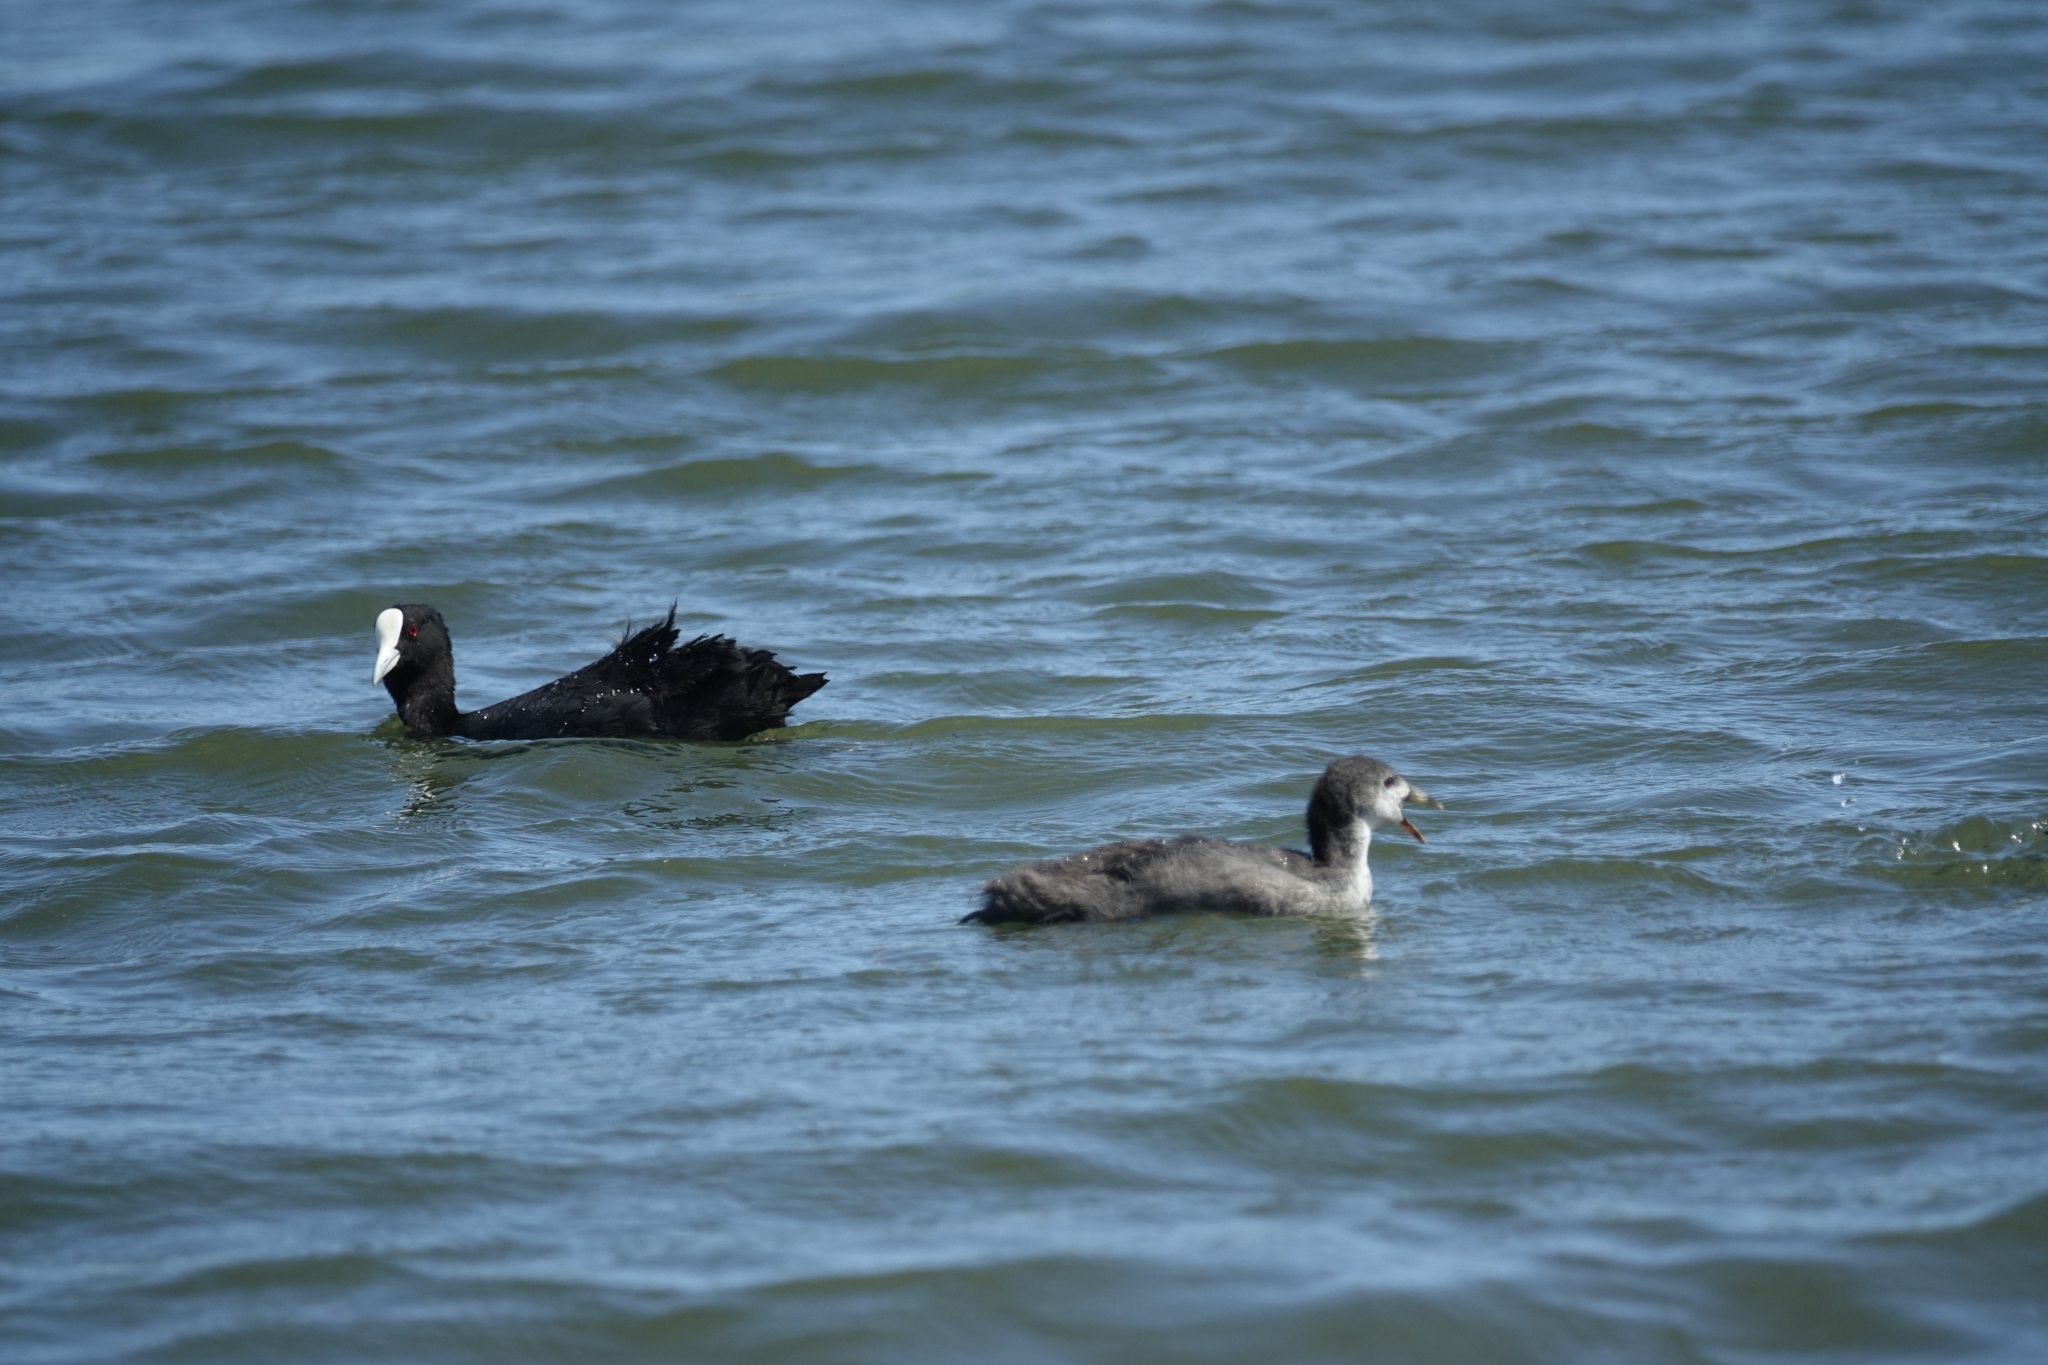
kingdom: Animalia
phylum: Chordata
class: Aves
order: Gruiformes
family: Rallidae
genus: Fulica
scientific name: Fulica atra
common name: Eurasian coot
